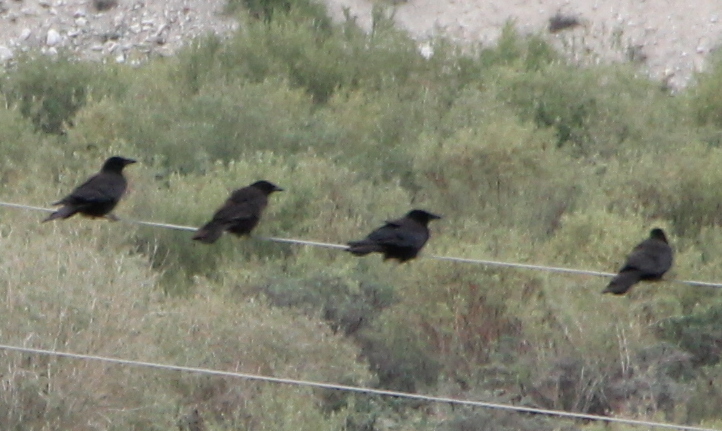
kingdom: Animalia
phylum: Chordata
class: Aves
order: Passeriformes
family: Corvidae
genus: Corvus
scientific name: Corvus corone
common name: Carrion crow
